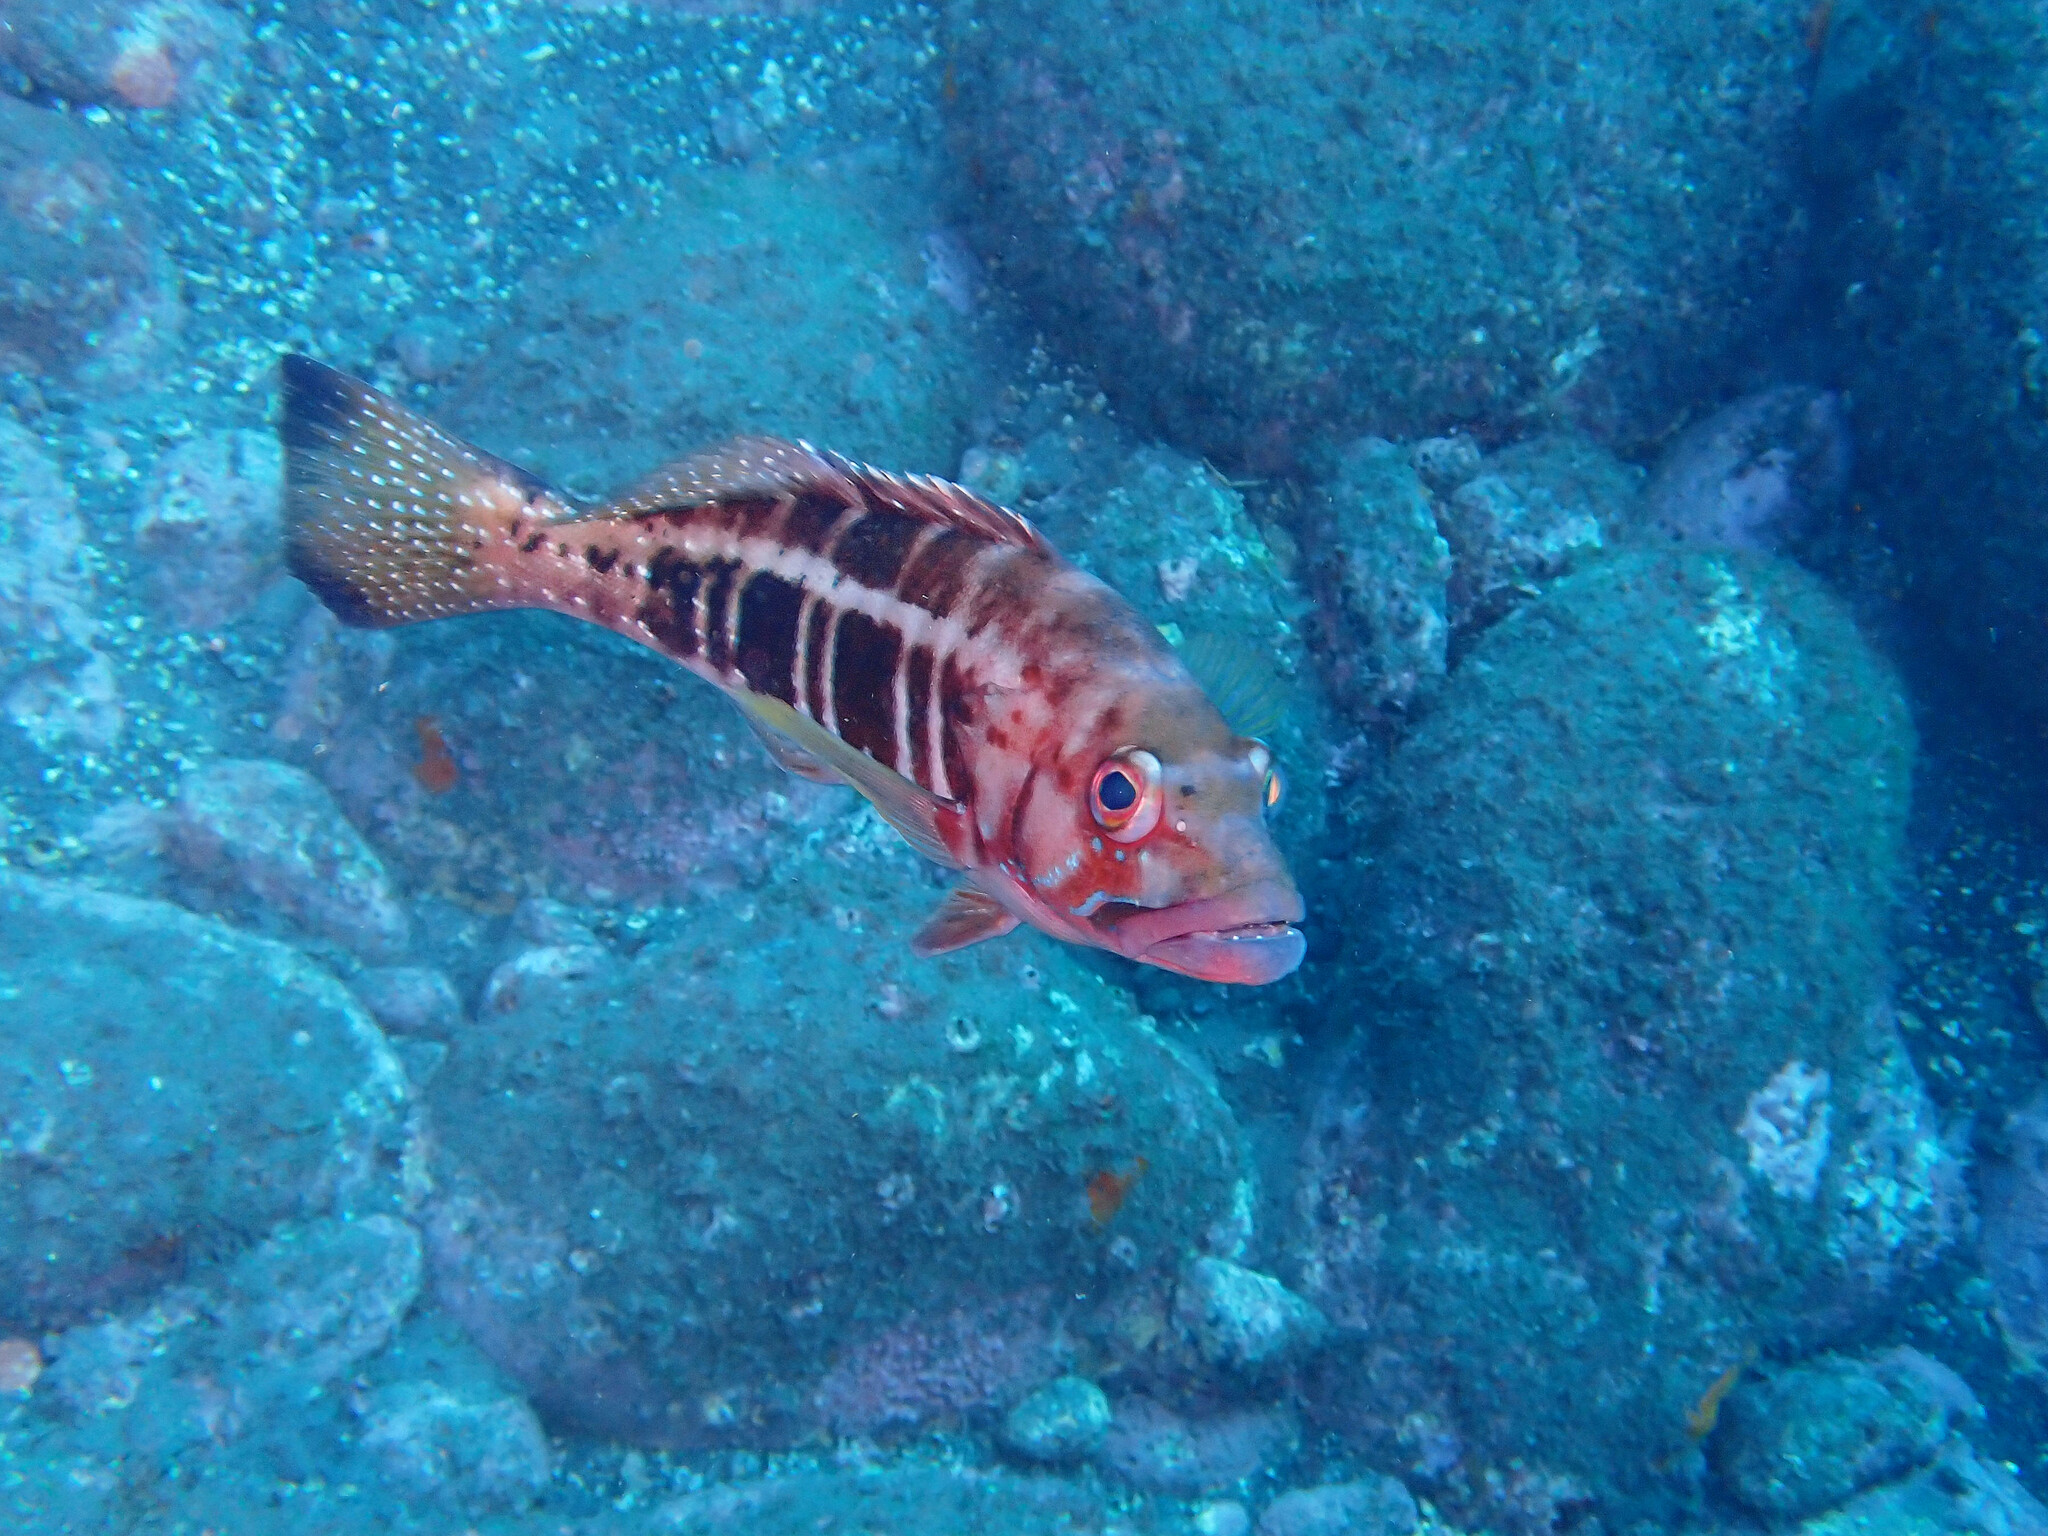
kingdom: Animalia
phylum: Chordata
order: Perciformes
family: Serranidae
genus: Serranus
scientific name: Serranus atricauda
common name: Blacktail comber
